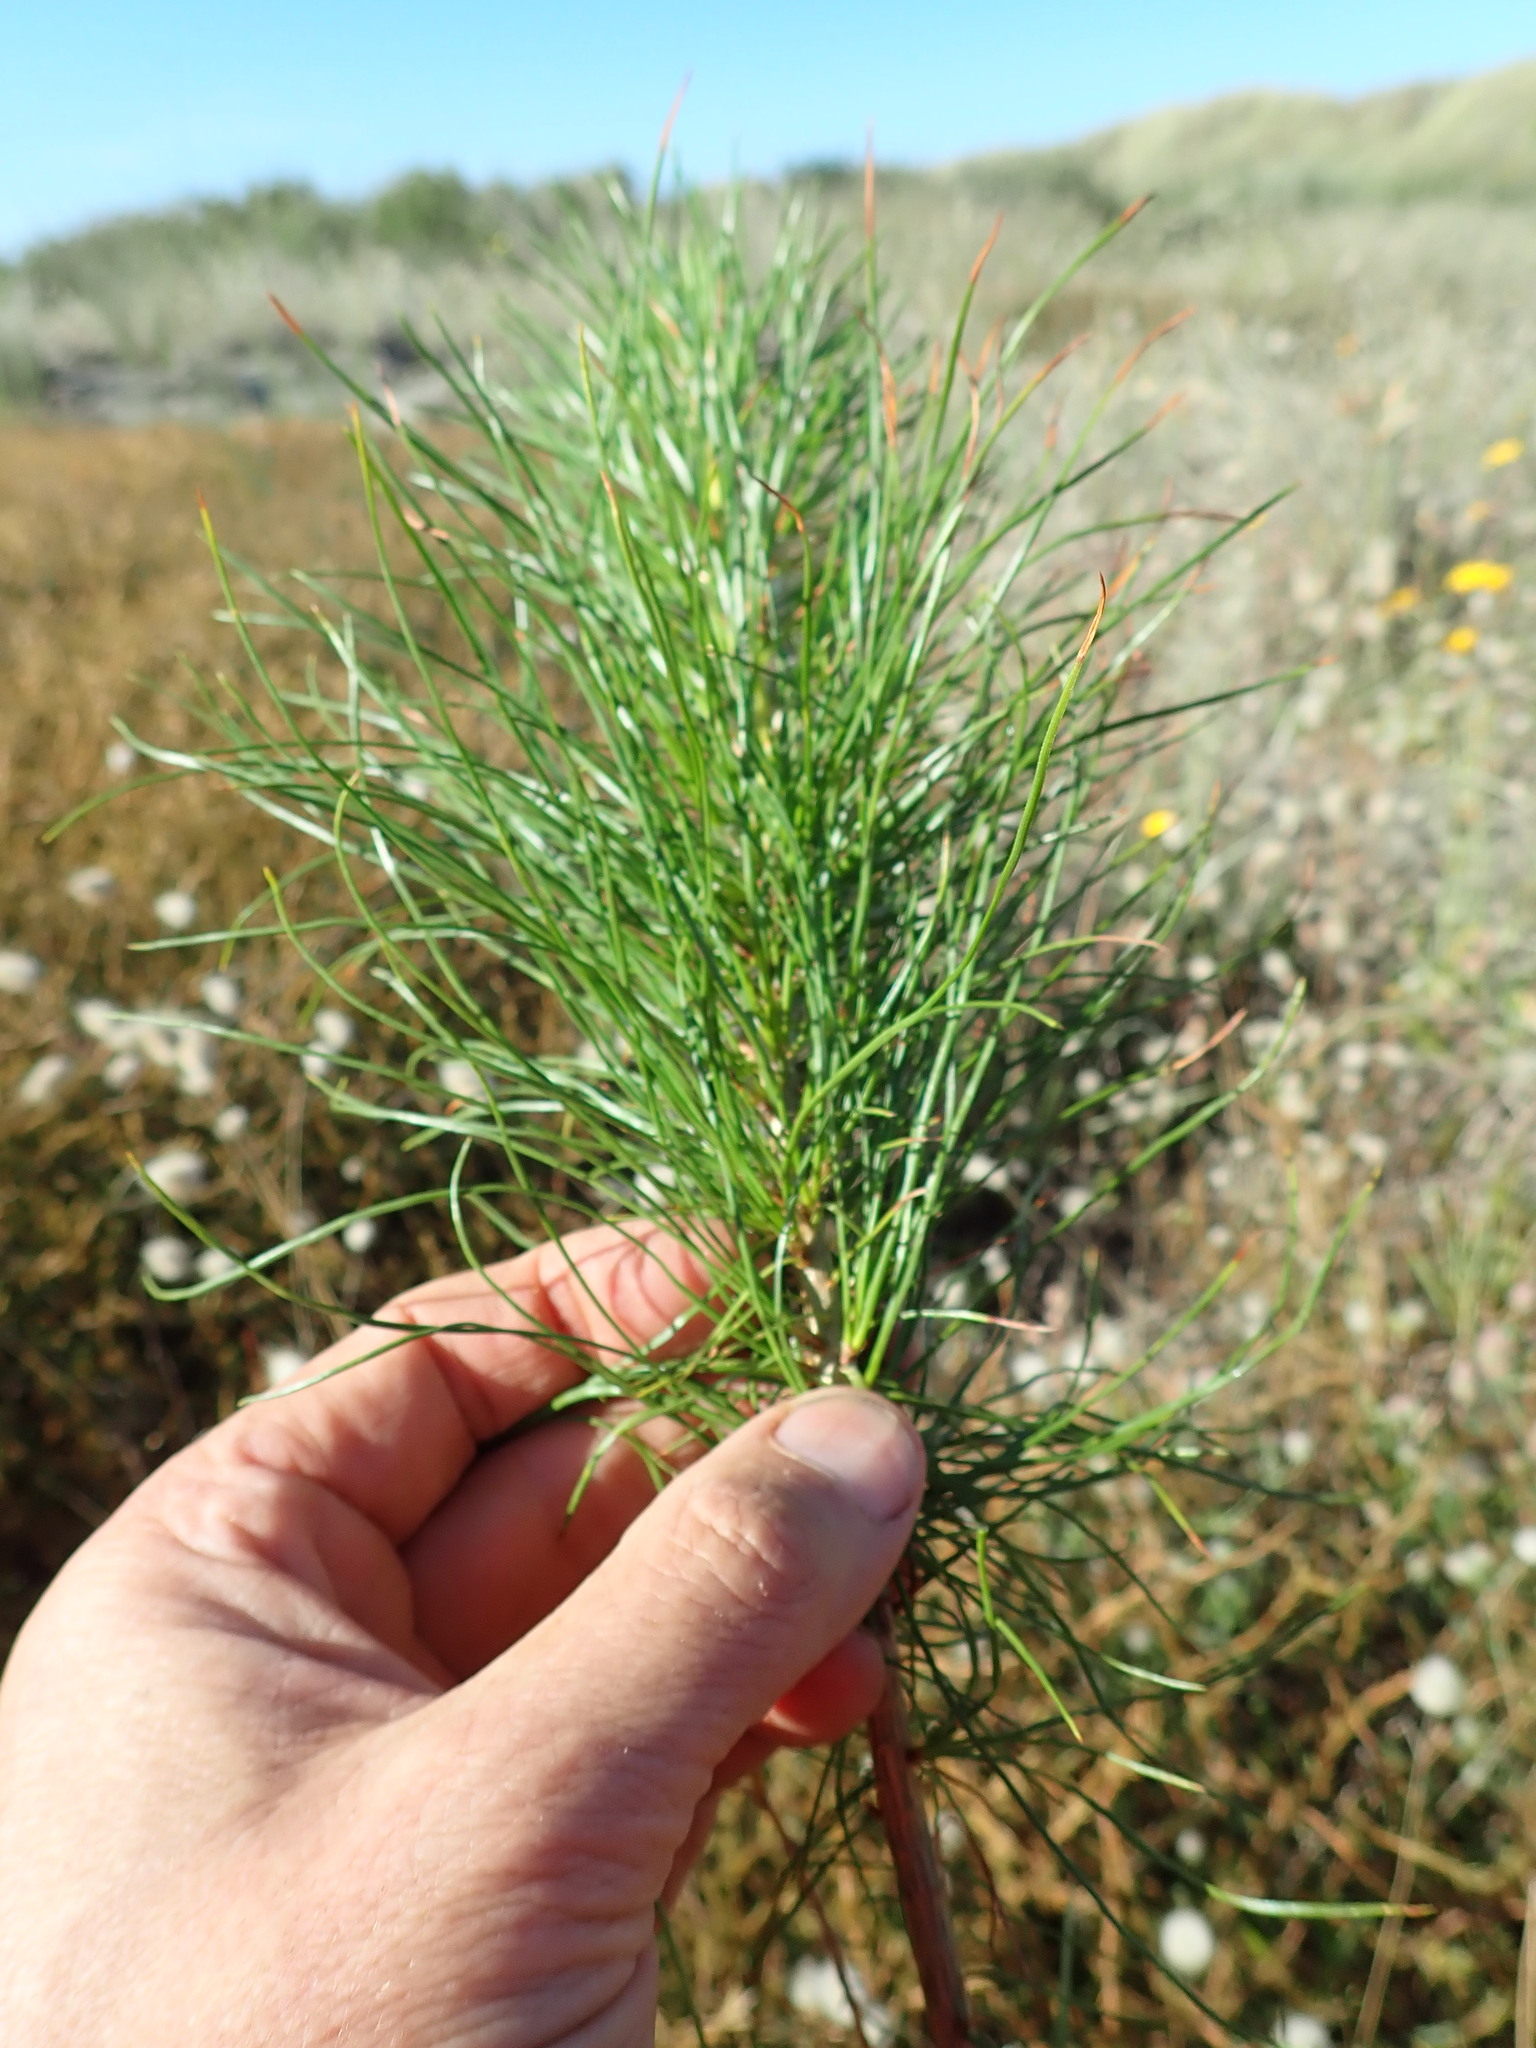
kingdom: Plantae
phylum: Tracheophyta
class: Pinopsida
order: Pinales
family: Pinaceae
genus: Pinus
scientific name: Pinus radiata
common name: Monterey pine
